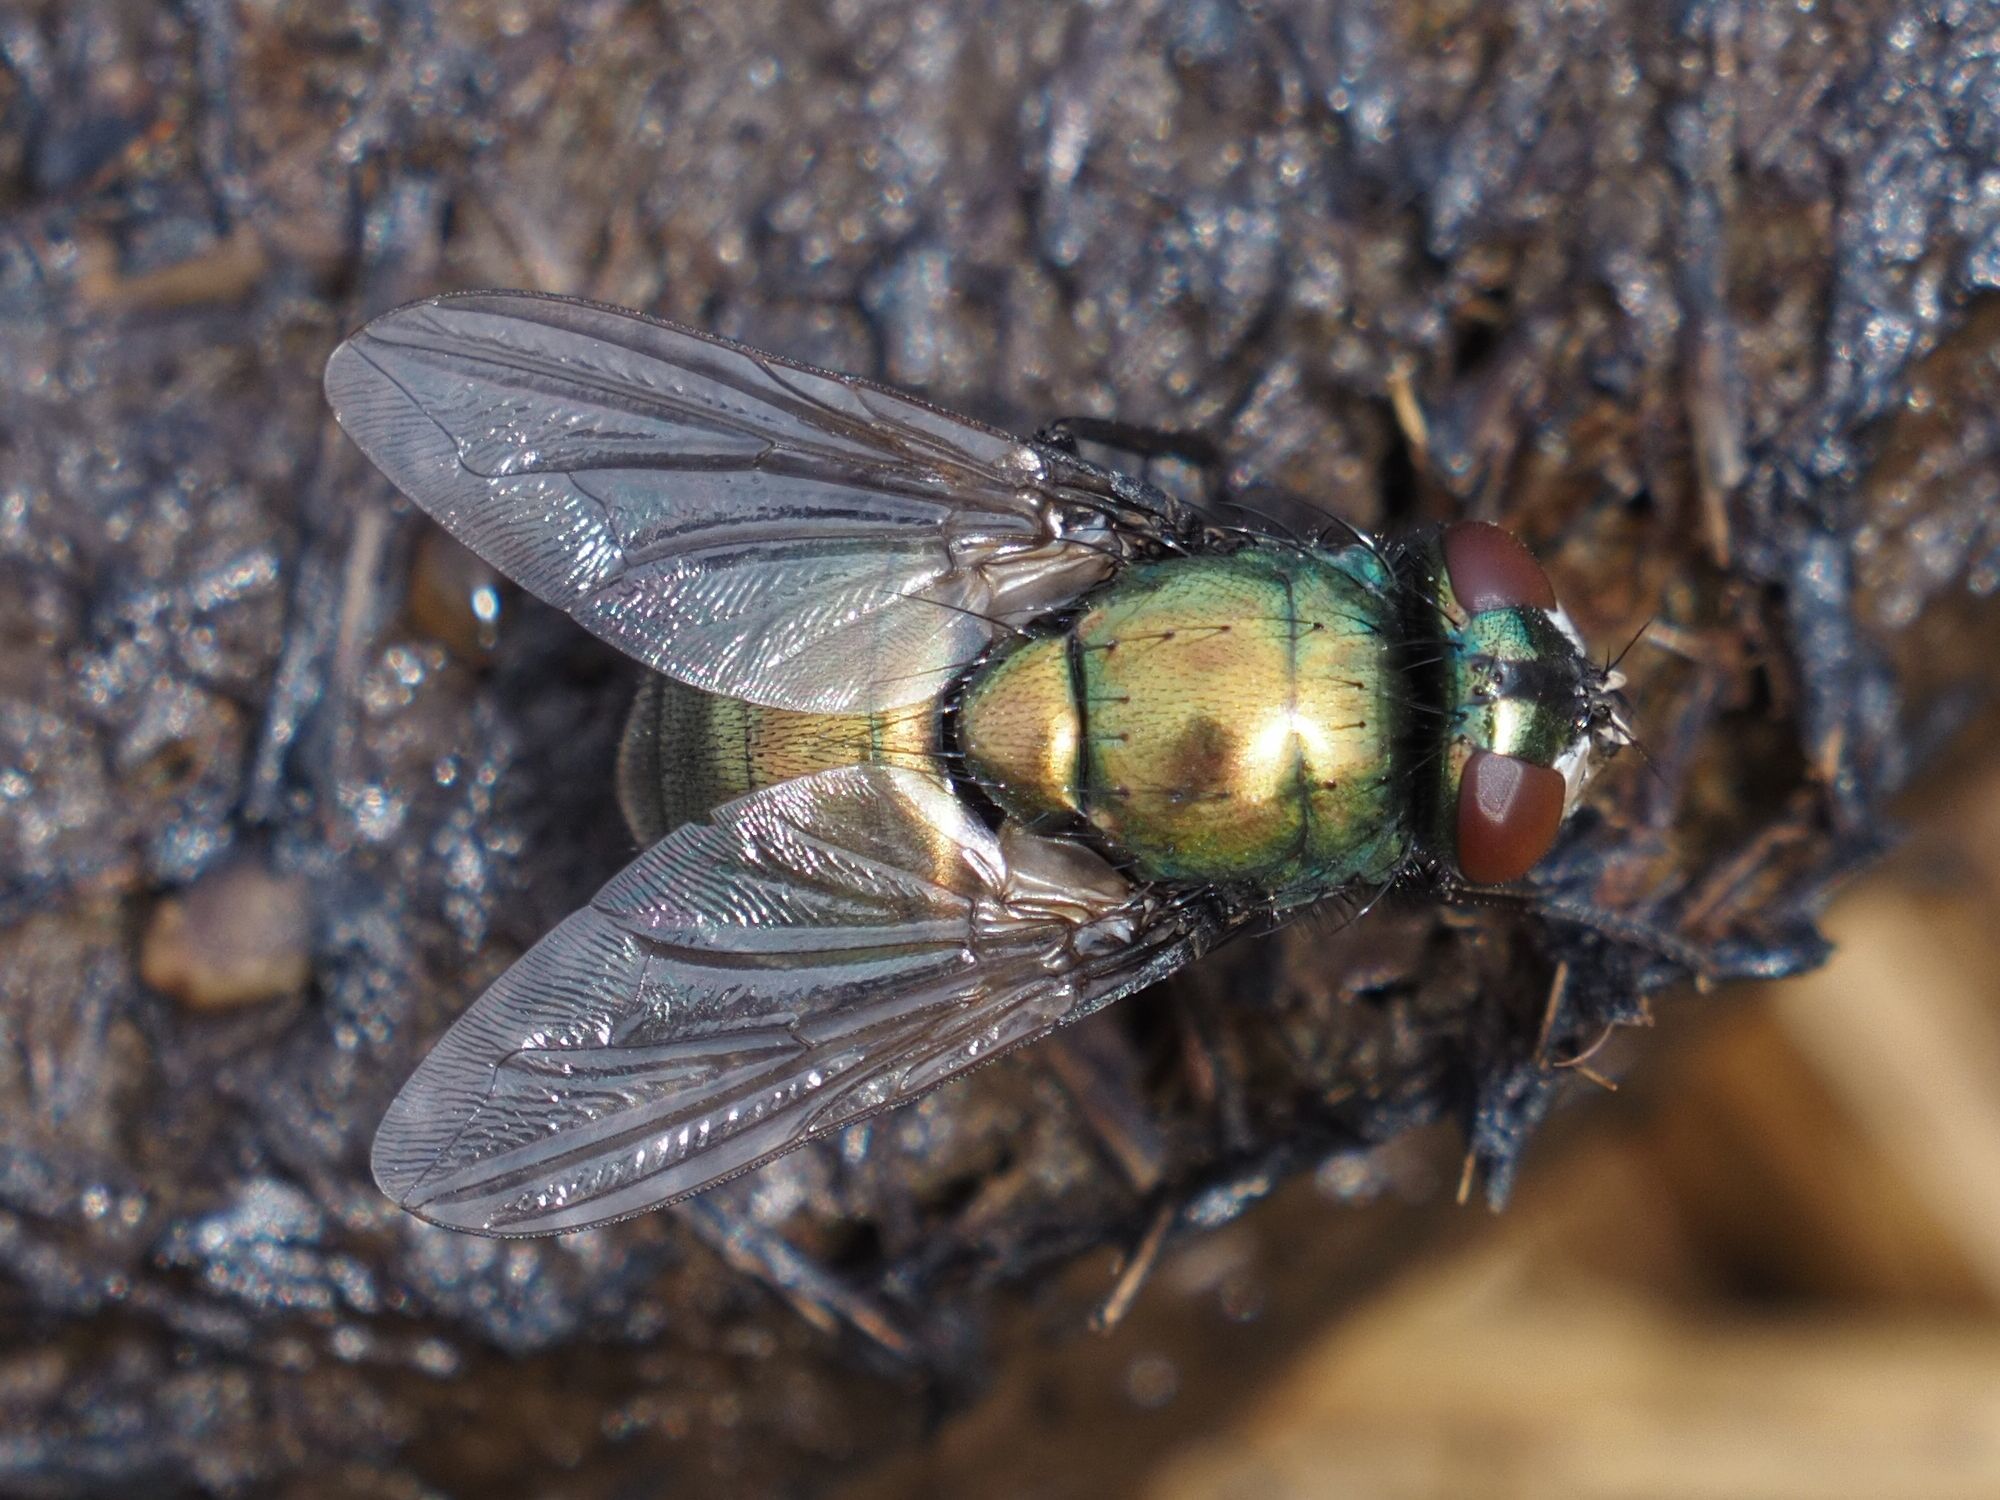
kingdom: Animalia
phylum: Arthropoda
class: Insecta
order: Diptera
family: Muscidae
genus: Neomyia
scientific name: Neomyia cornicina
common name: House fly
